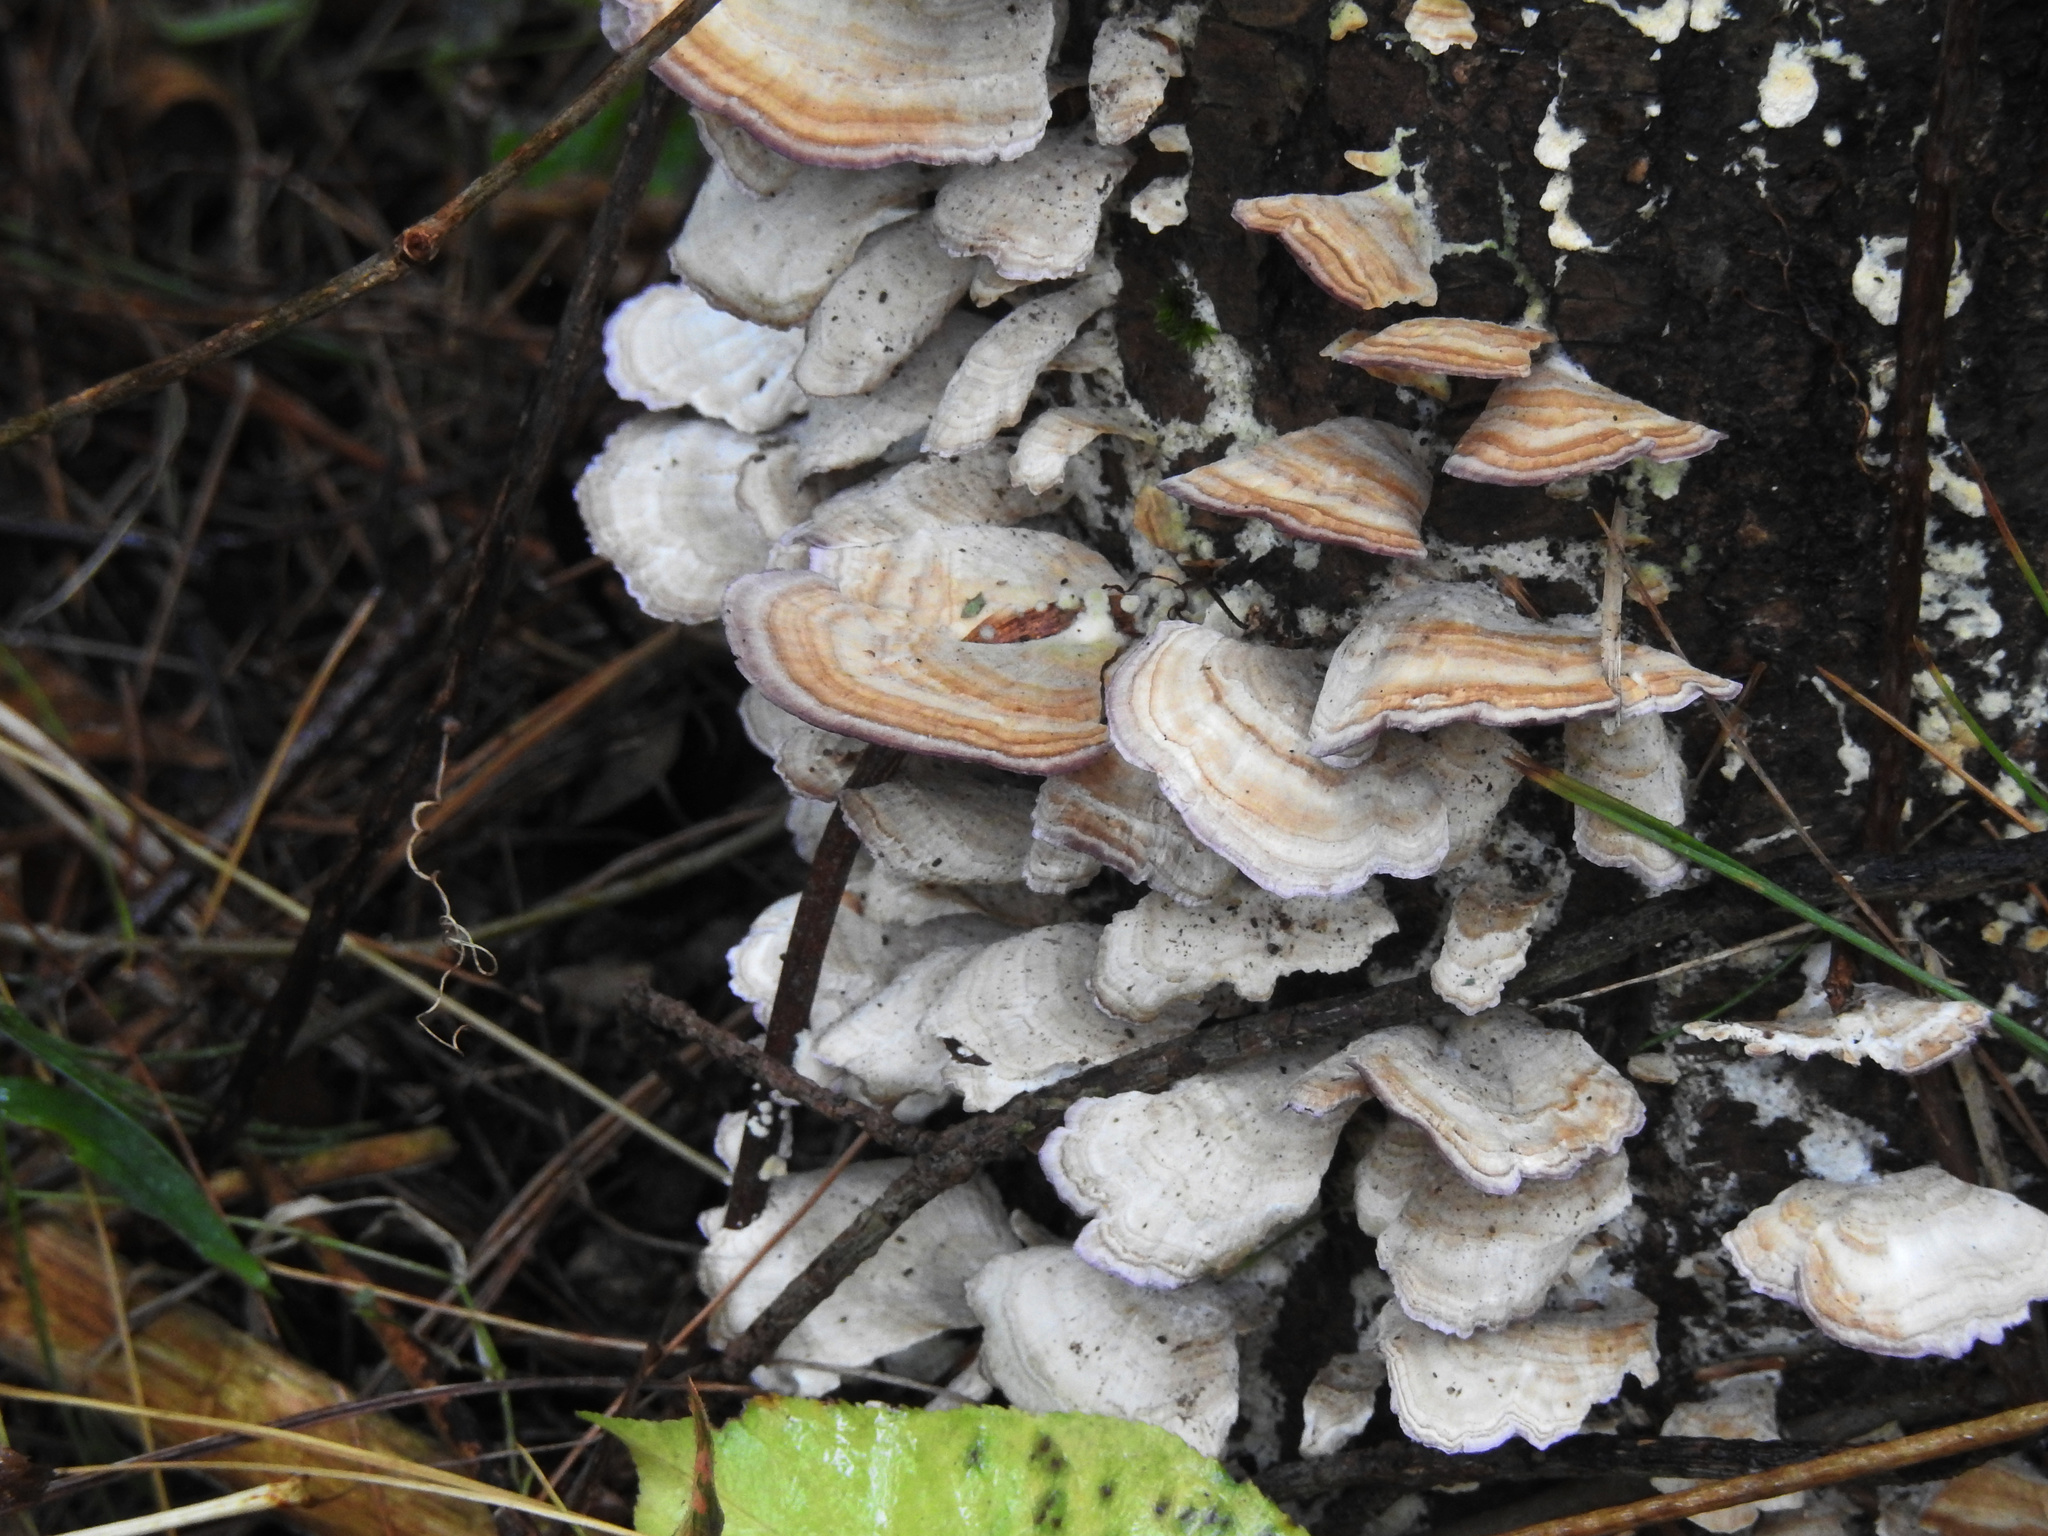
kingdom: Fungi
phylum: Basidiomycota
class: Agaricomycetes
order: Hymenochaetales
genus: Trichaptum
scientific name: Trichaptum biforme
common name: Violet-toothed polypore
